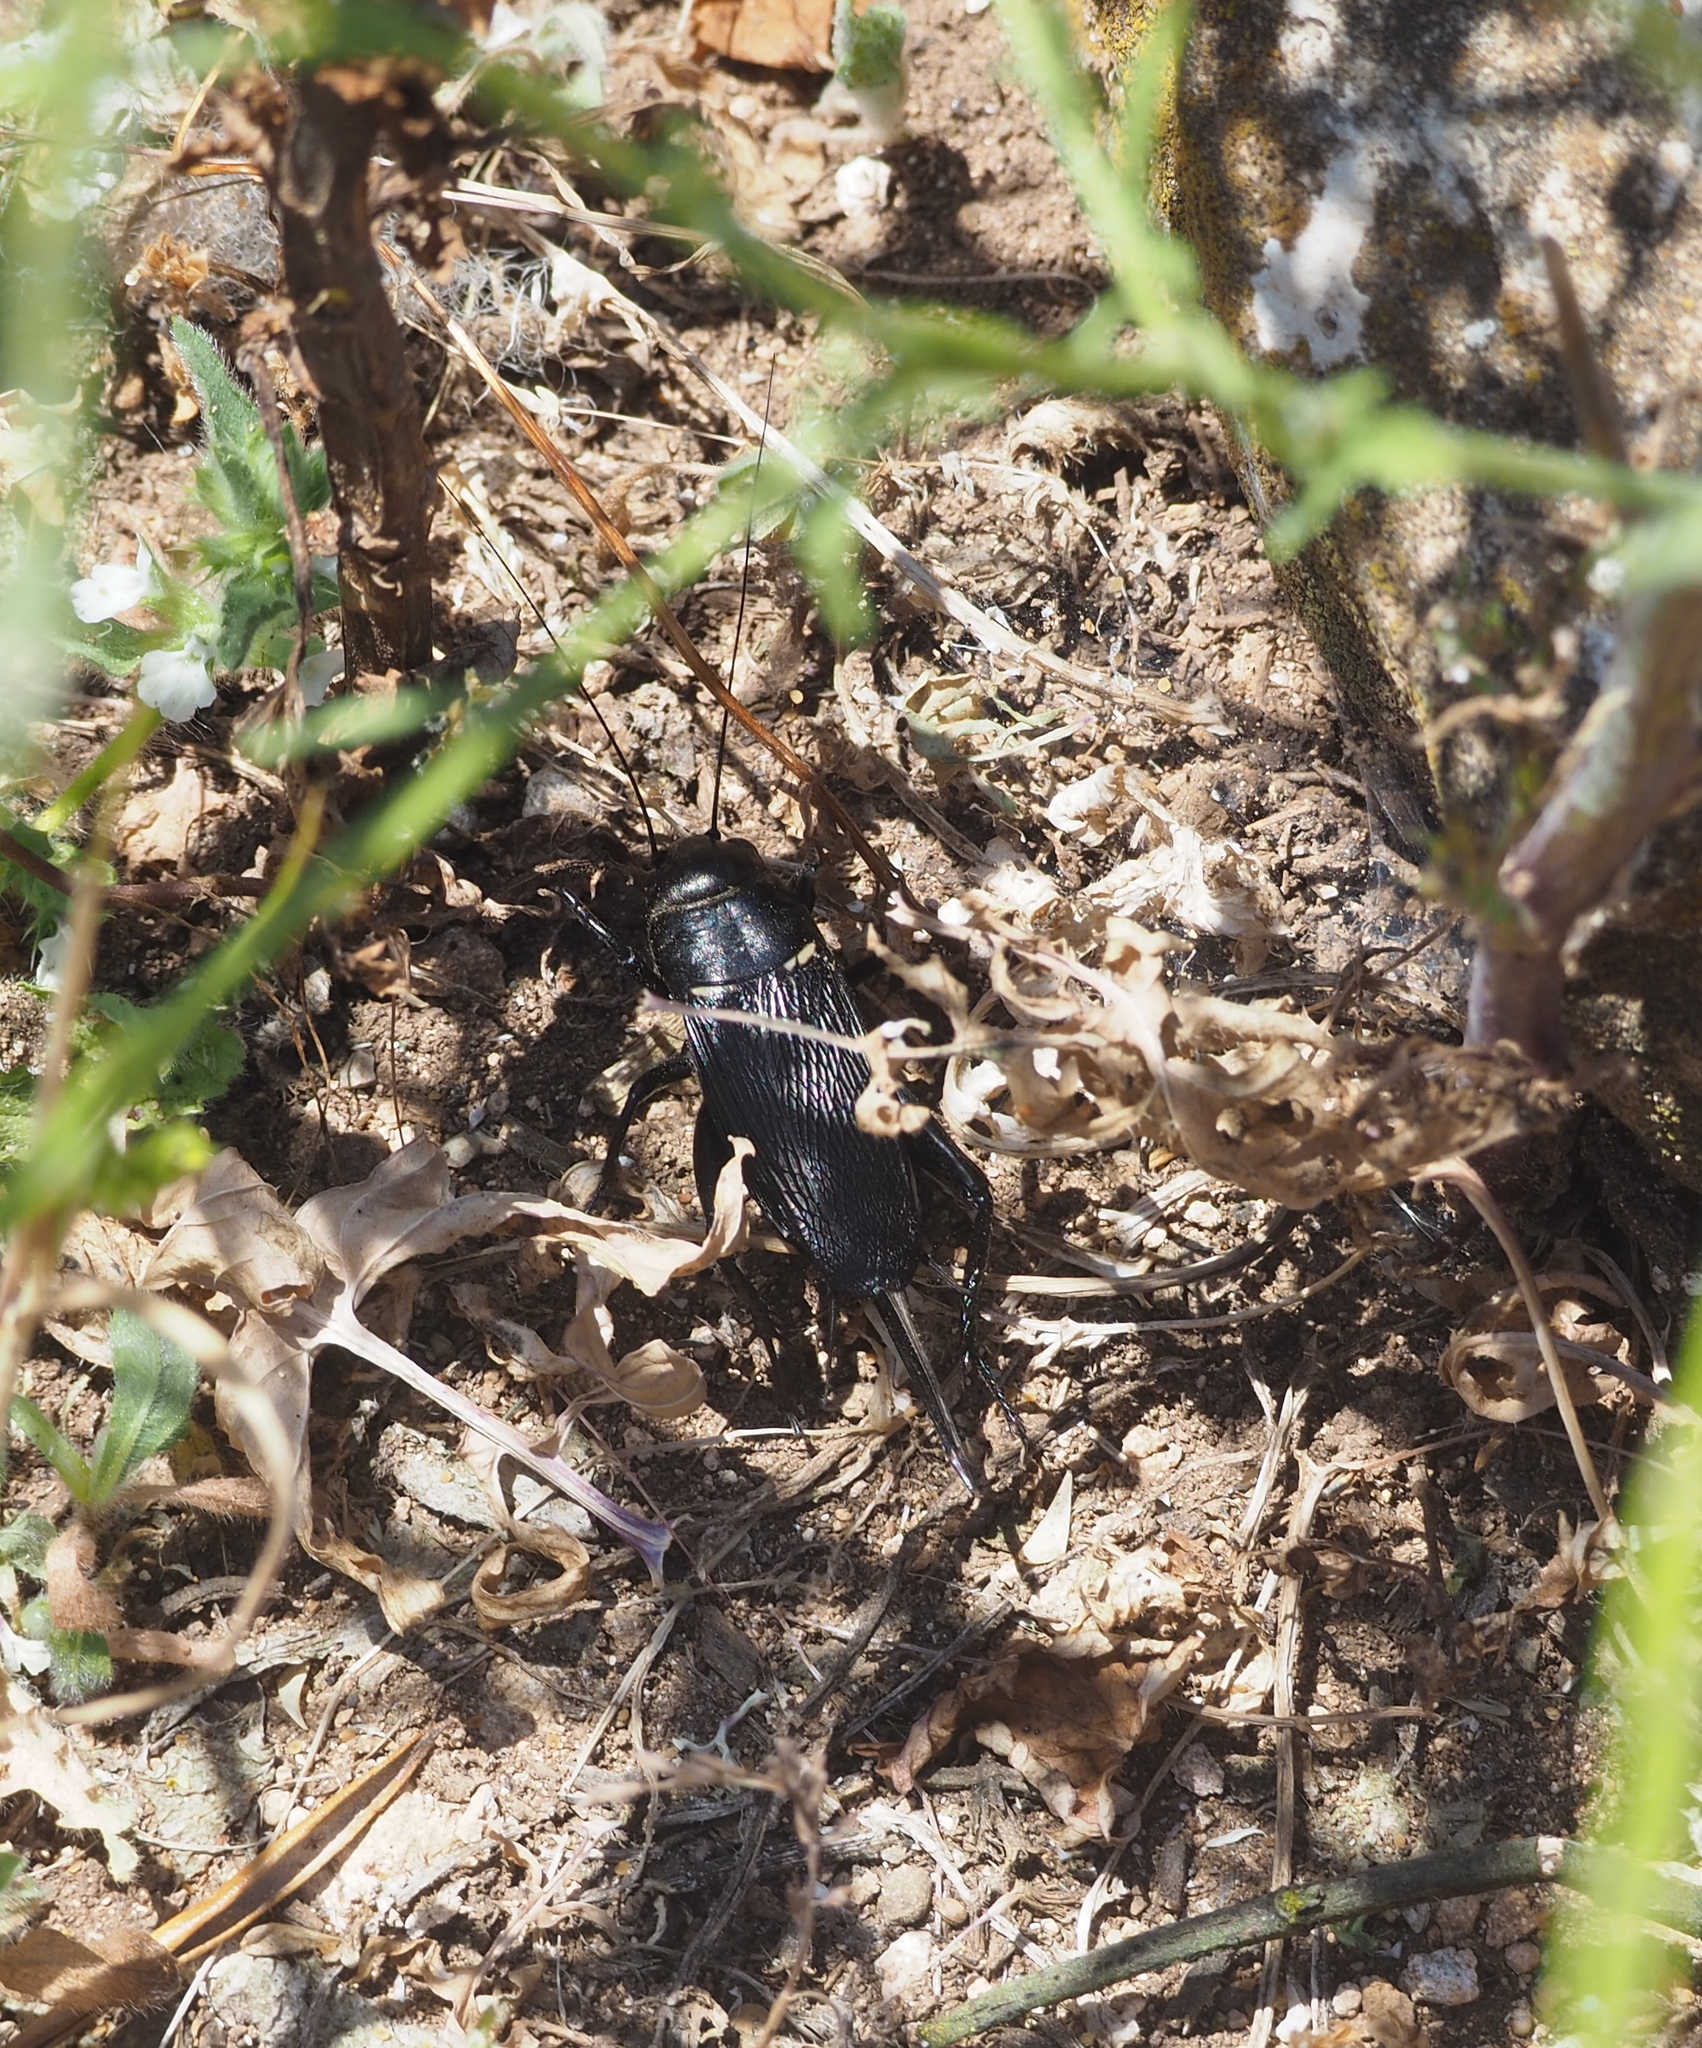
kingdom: Animalia
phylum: Arthropoda
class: Insecta
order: Orthoptera
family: Gryllidae
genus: Gryllus
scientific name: Gryllus bimaculatus
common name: Two-spotted cricket
